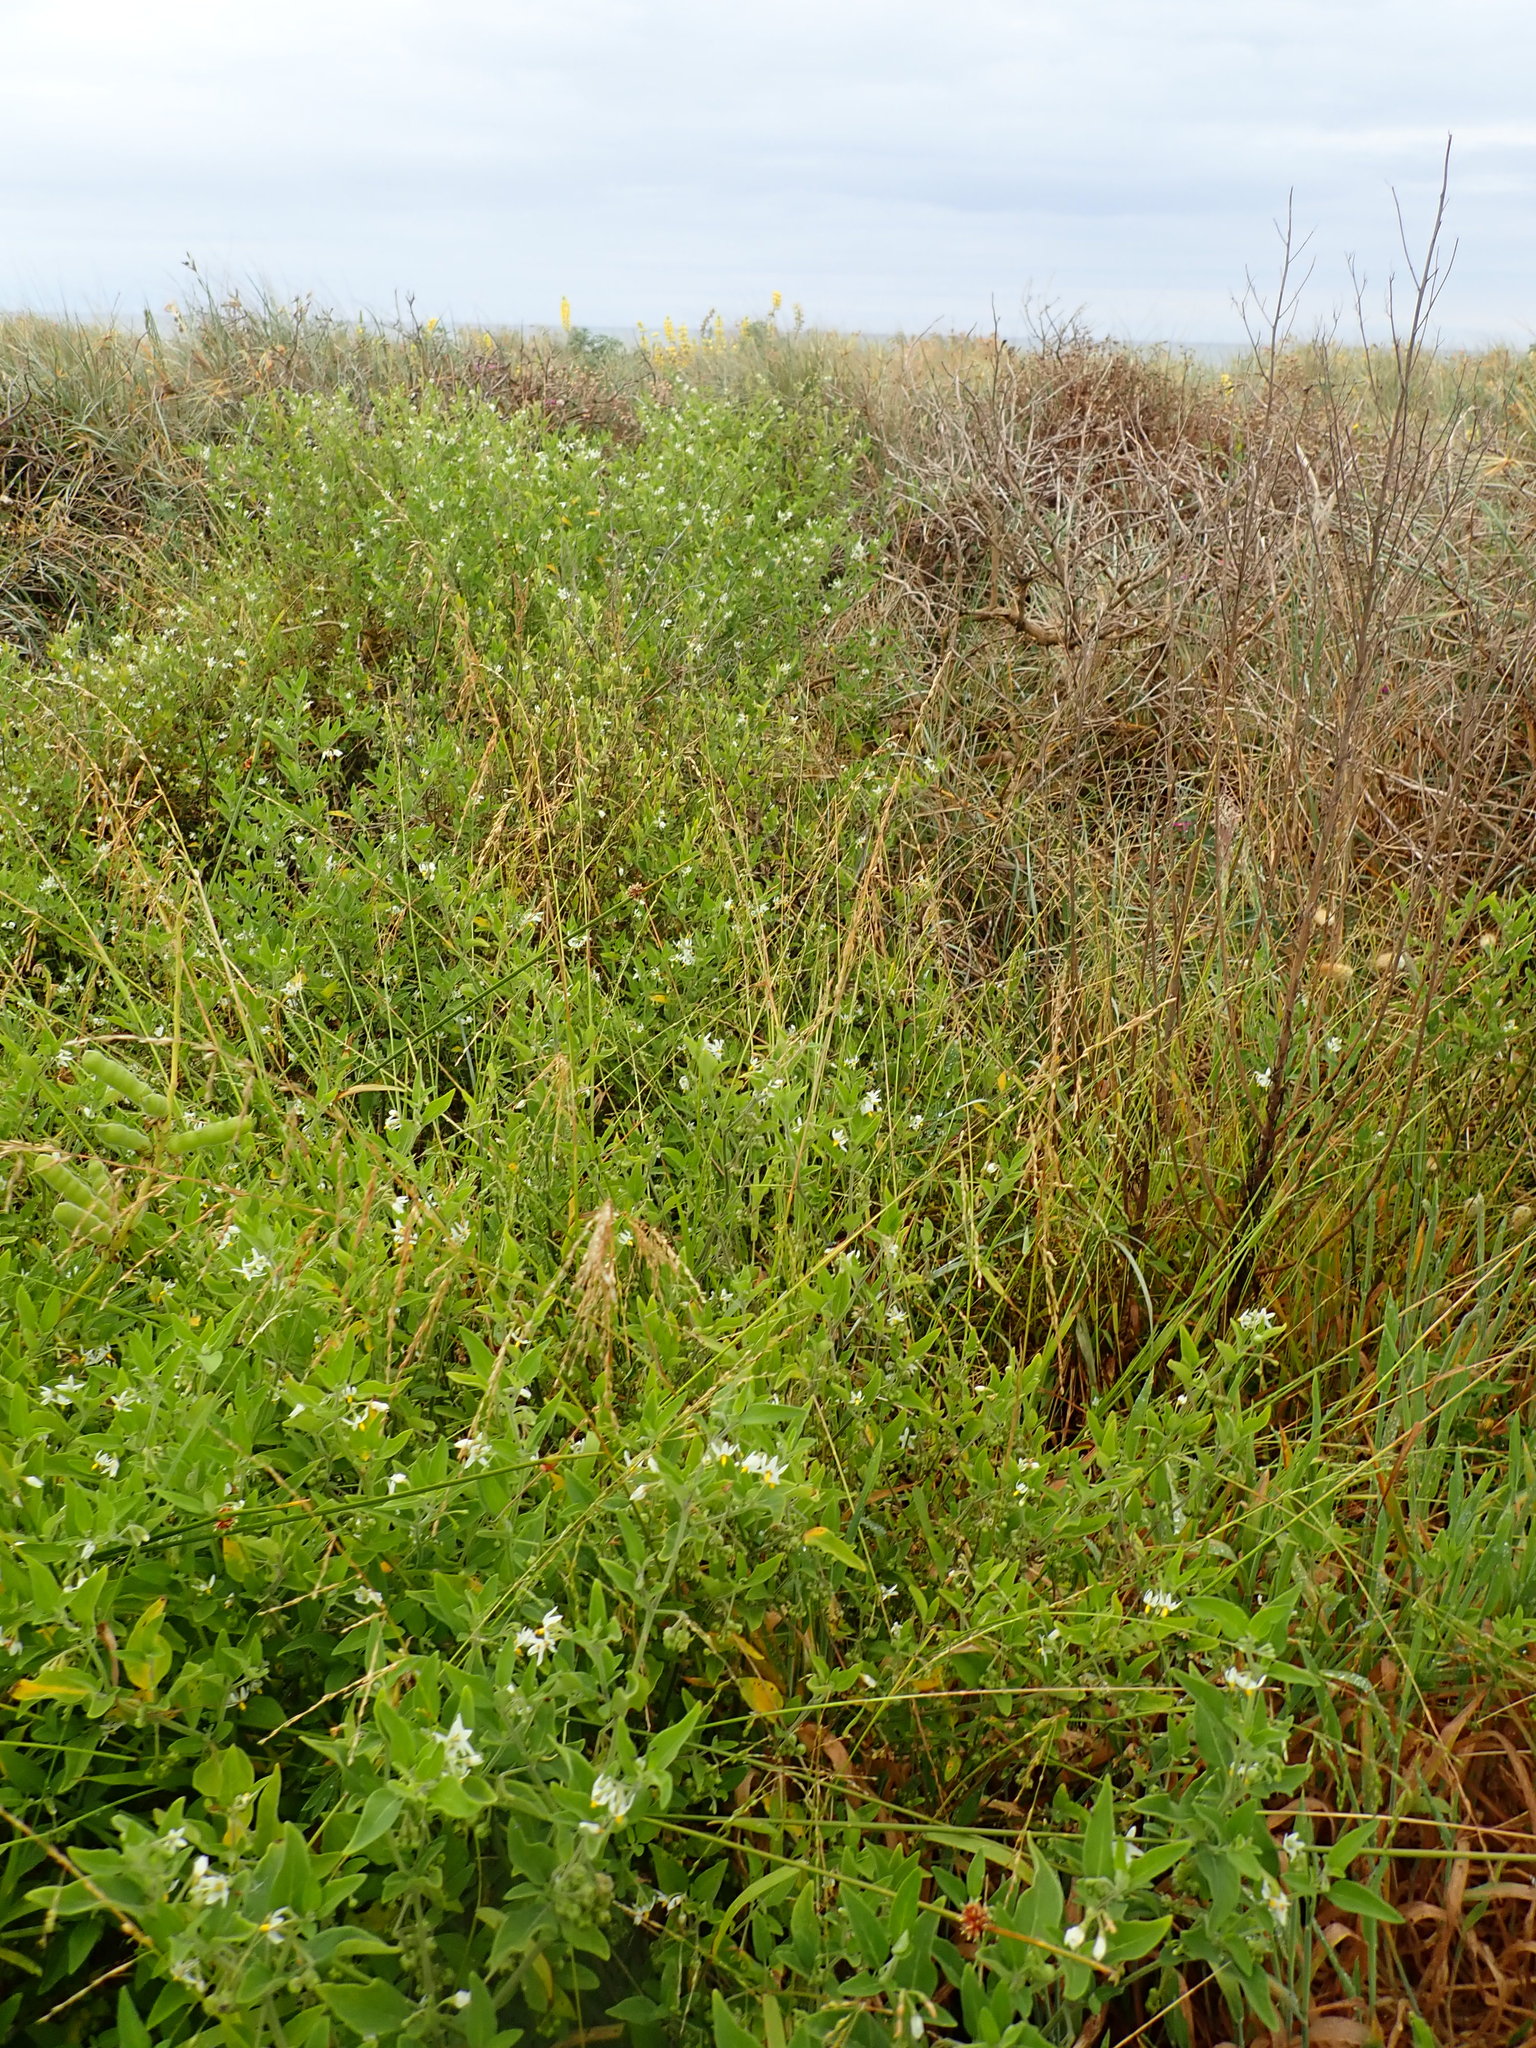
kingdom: Plantae
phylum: Tracheophyta
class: Magnoliopsida
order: Solanales
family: Solanaceae
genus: Solanum
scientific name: Solanum chenopodioides
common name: Tall nightshade
